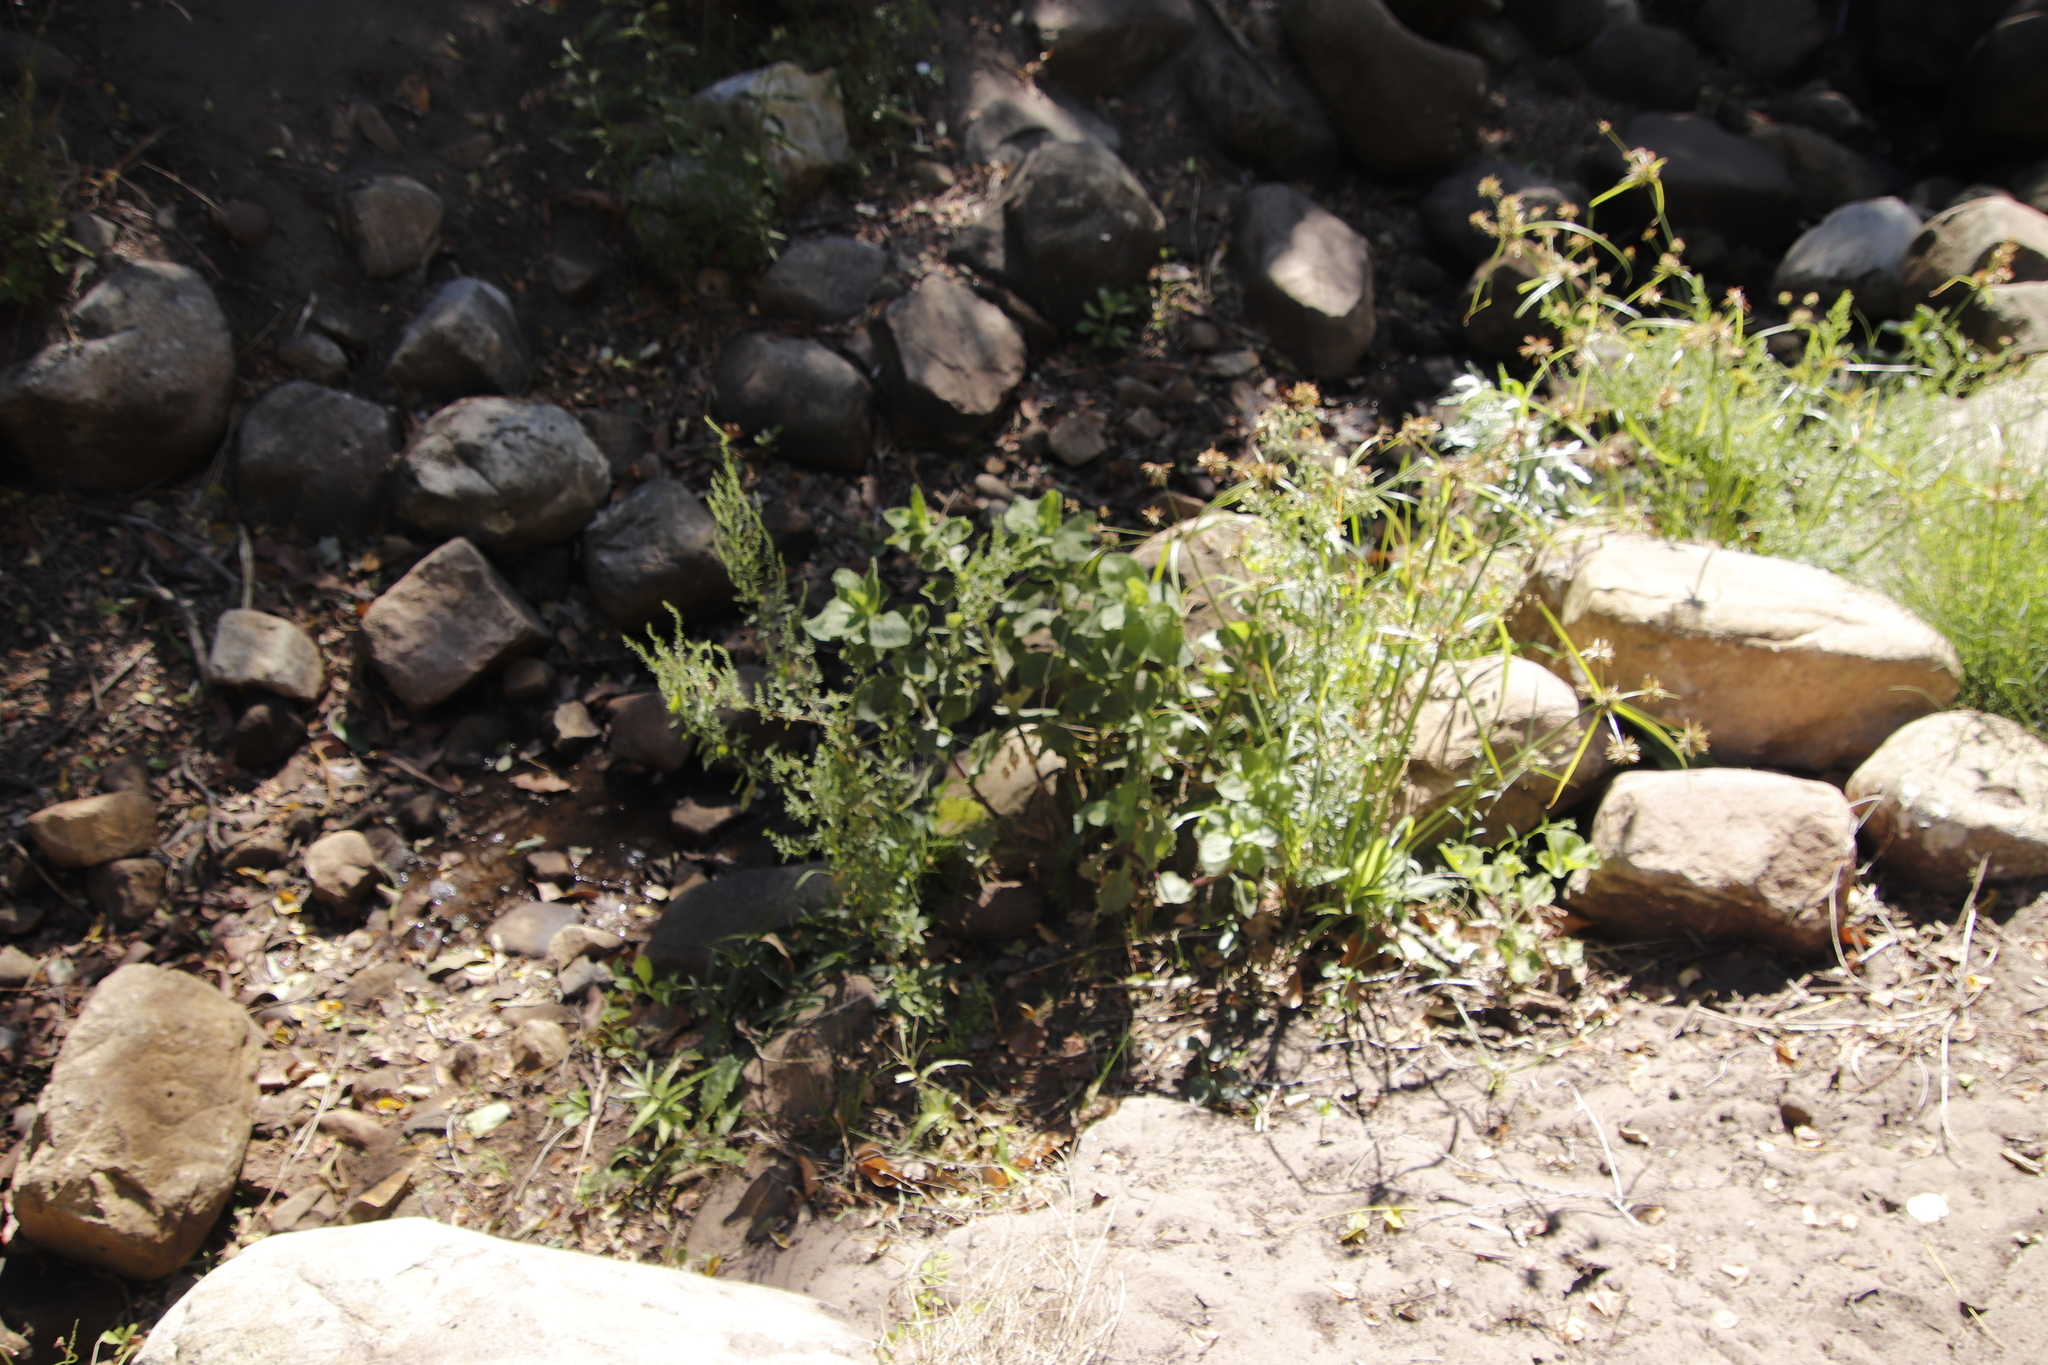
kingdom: Plantae
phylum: Tracheophyta
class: Liliopsida
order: Poales
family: Cyperaceae
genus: Cyperus
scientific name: Cyperus congestus
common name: Dense flat sedge
